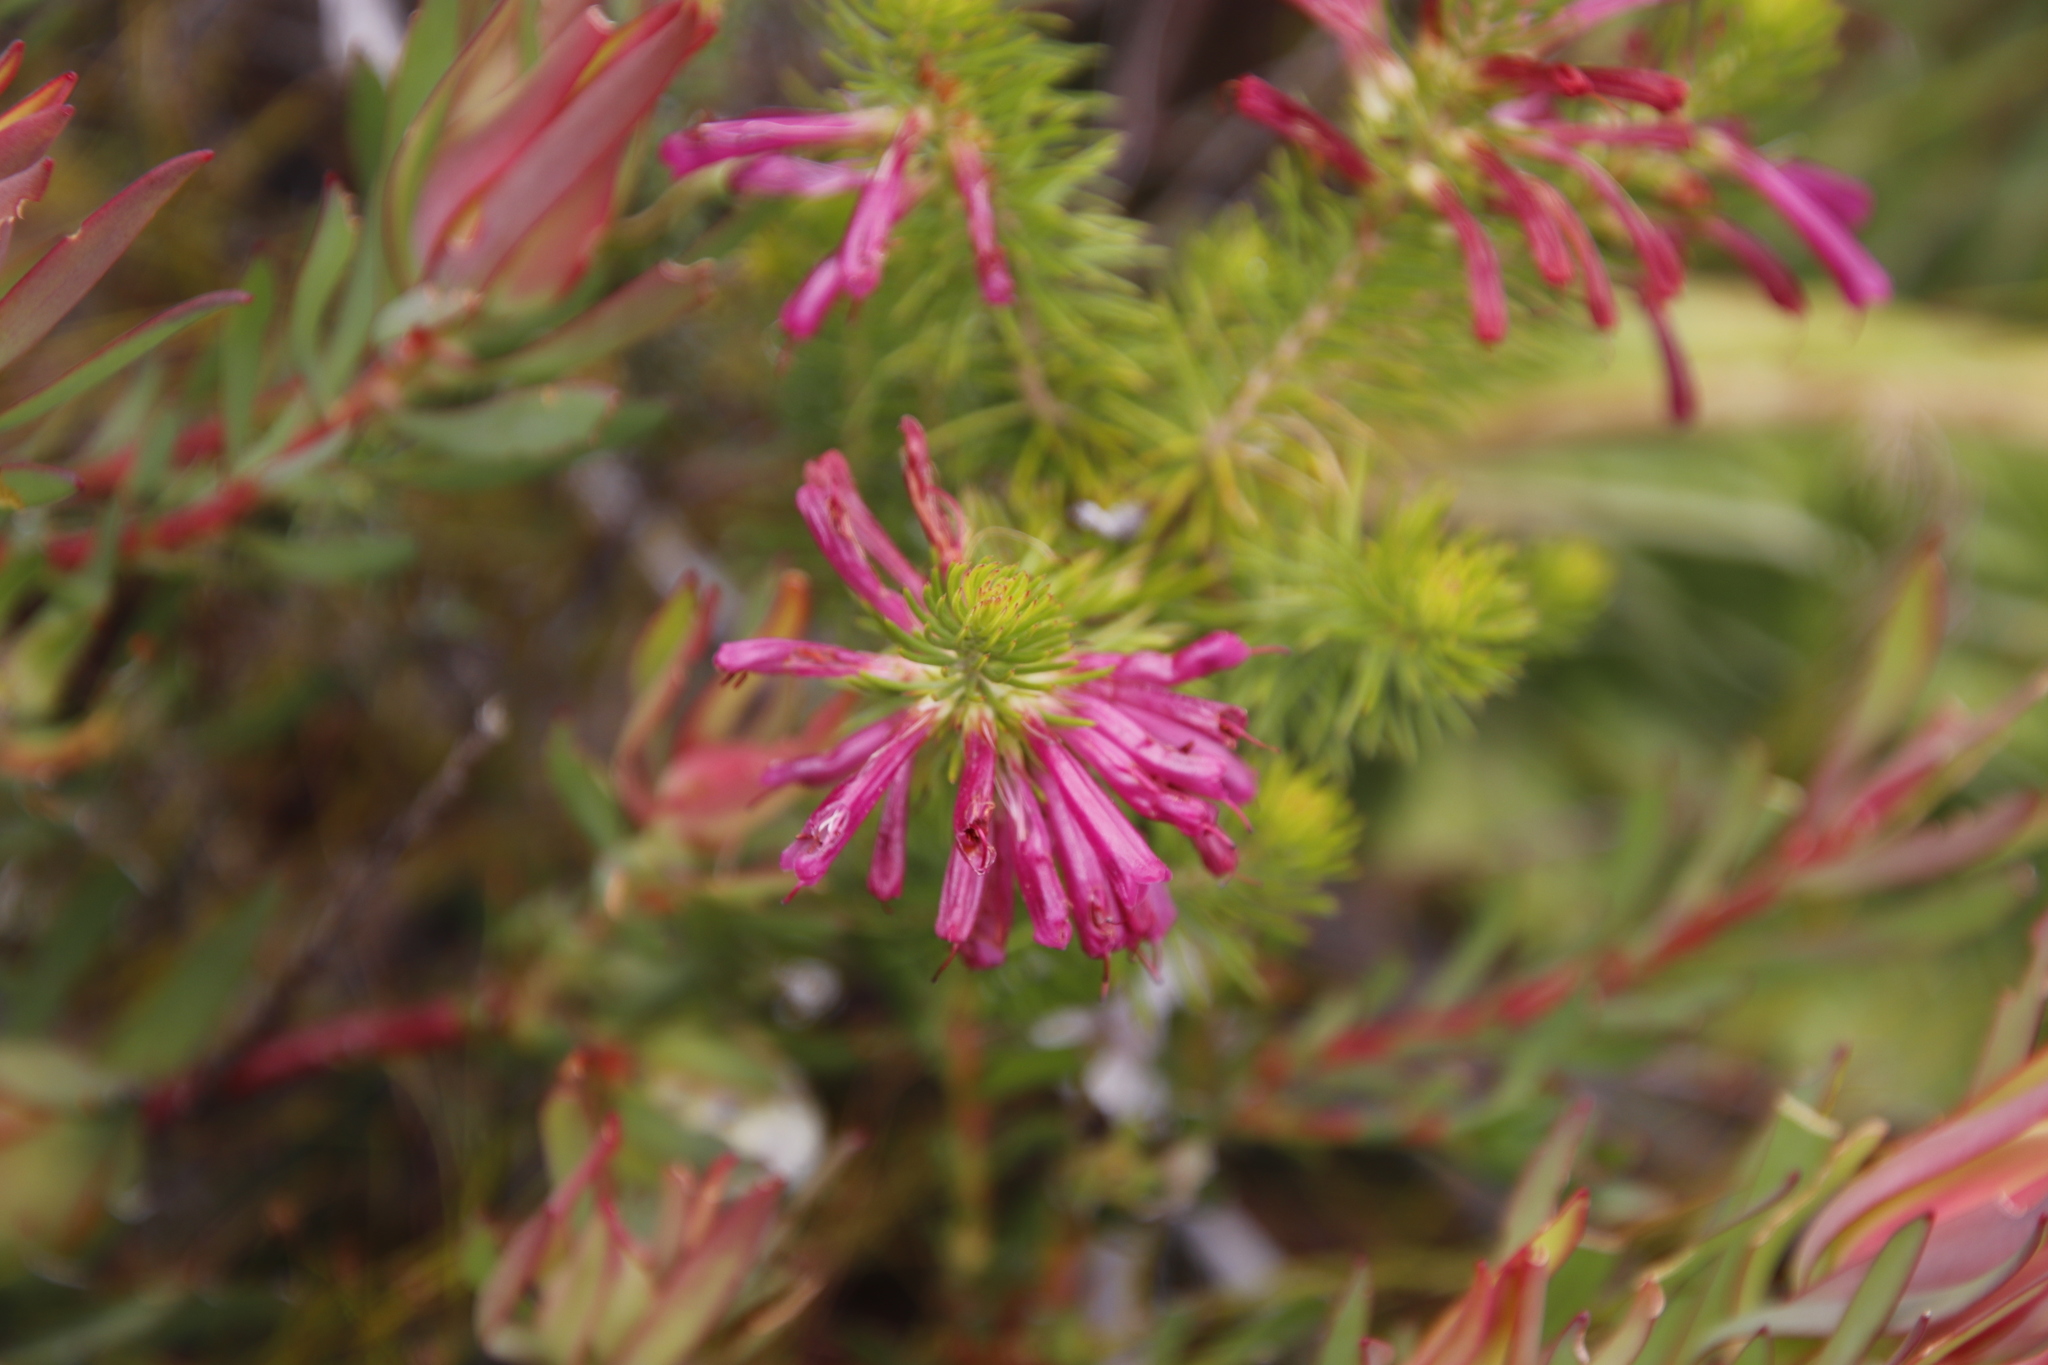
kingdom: Plantae
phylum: Tracheophyta
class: Magnoliopsida
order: Ericales
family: Ericaceae
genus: Erica
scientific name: Erica abietina
